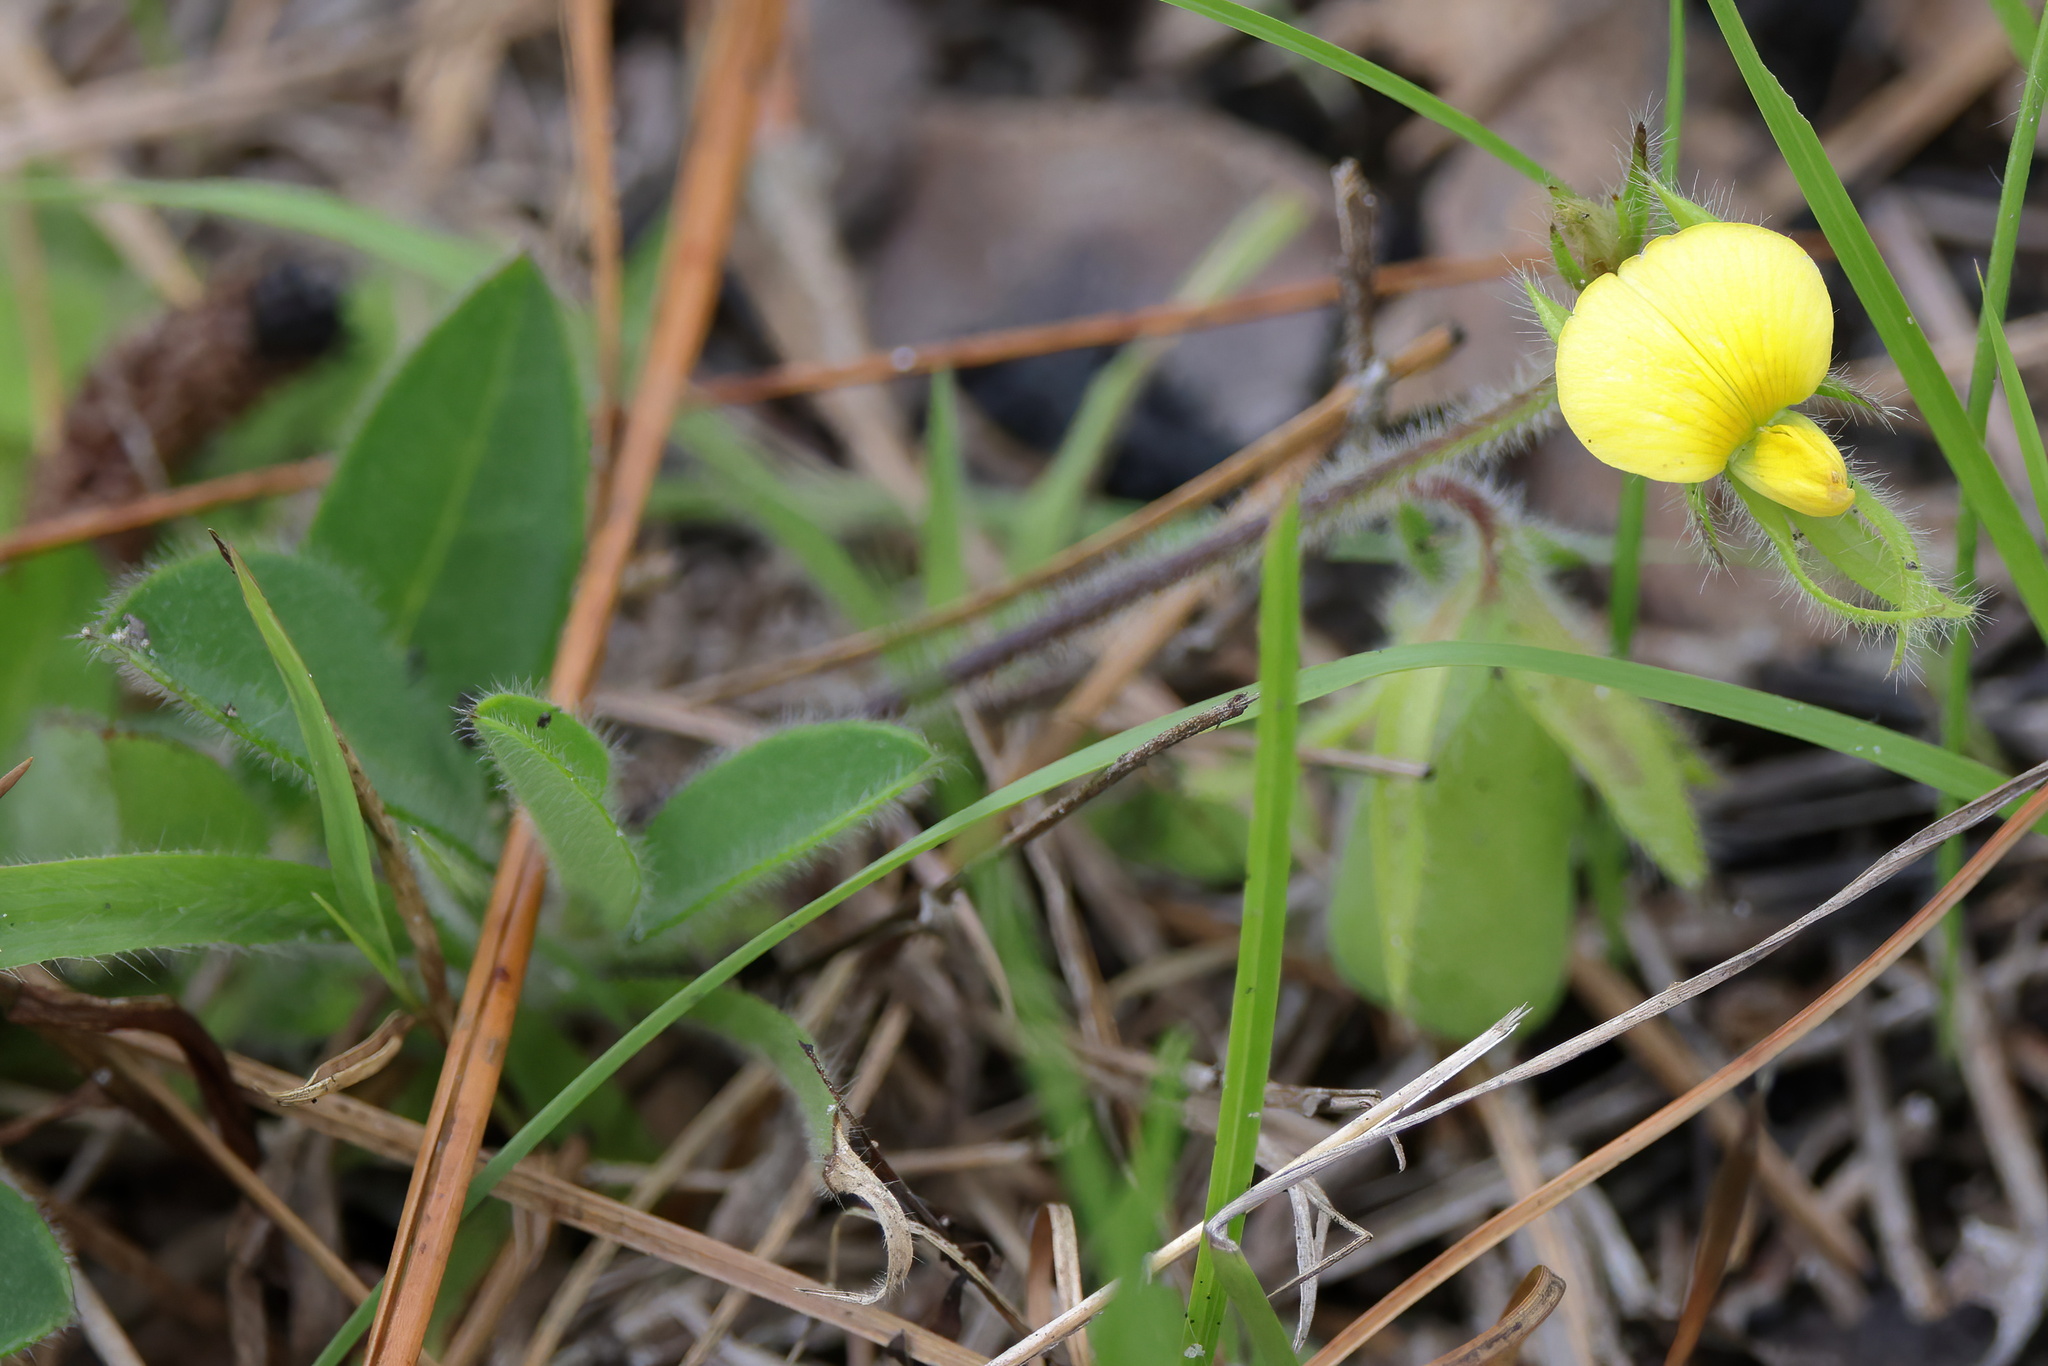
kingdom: Plantae
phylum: Tracheophyta
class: Magnoliopsida
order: Fabales
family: Fabaceae
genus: Crotalaria
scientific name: Crotalaria rotundifolia
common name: Prostrate rattlebox
